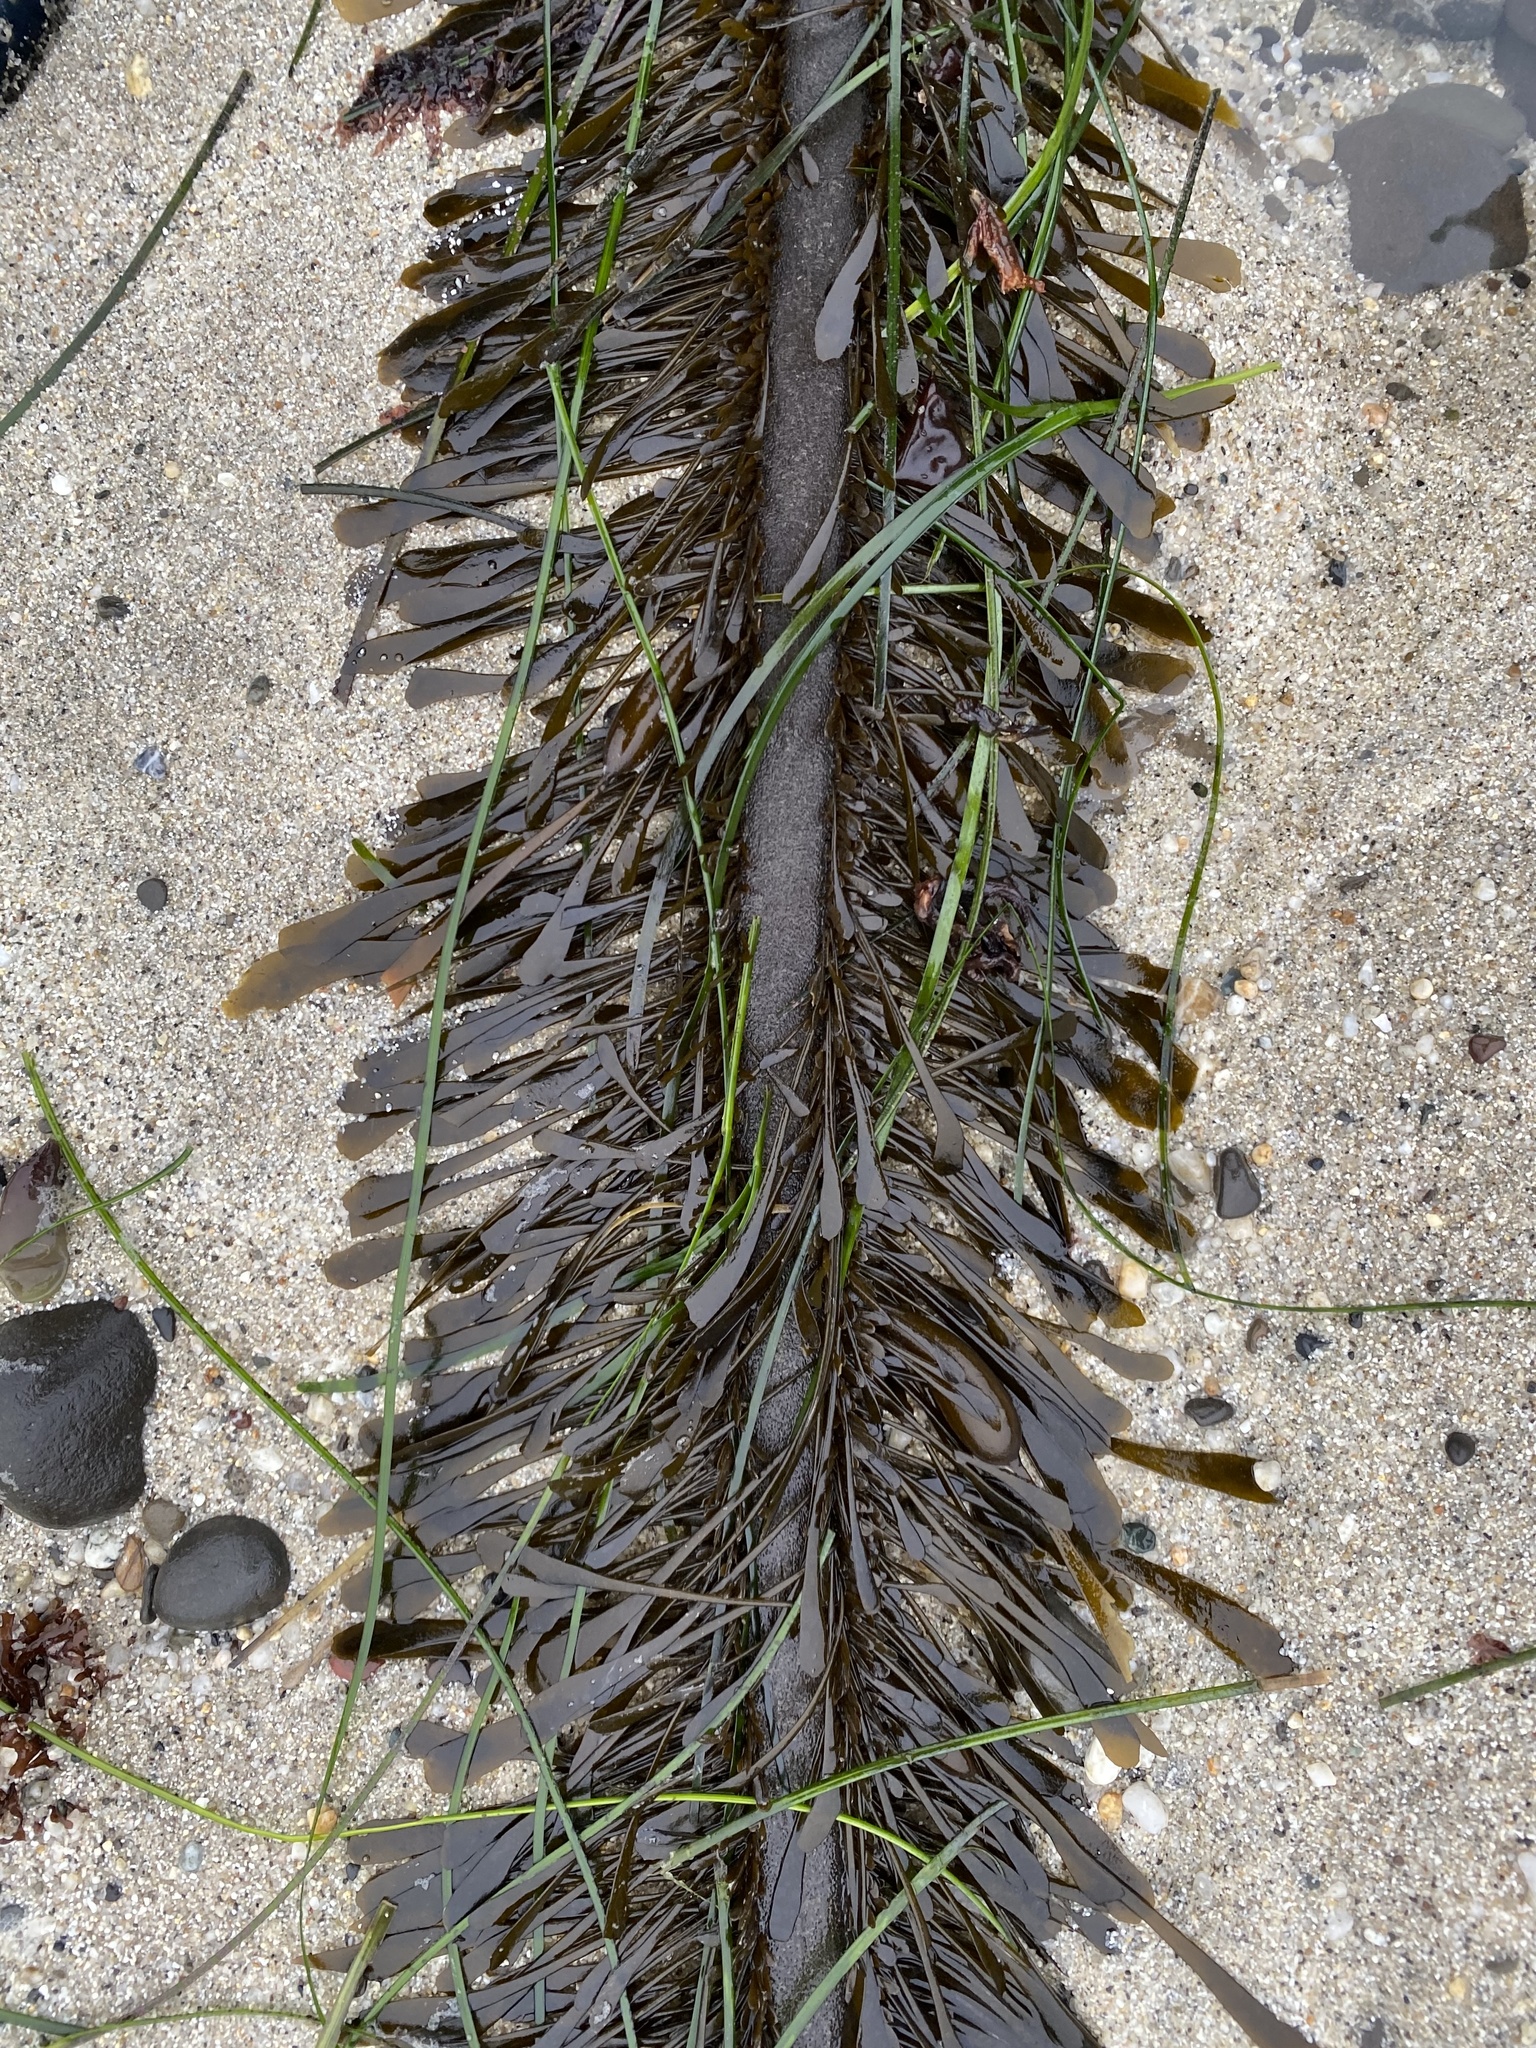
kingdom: Chromista
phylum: Ochrophyta
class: Phaeophyceae
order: Laminariales
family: Lessoniaceae
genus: Egregia
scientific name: Egregia menziesii
